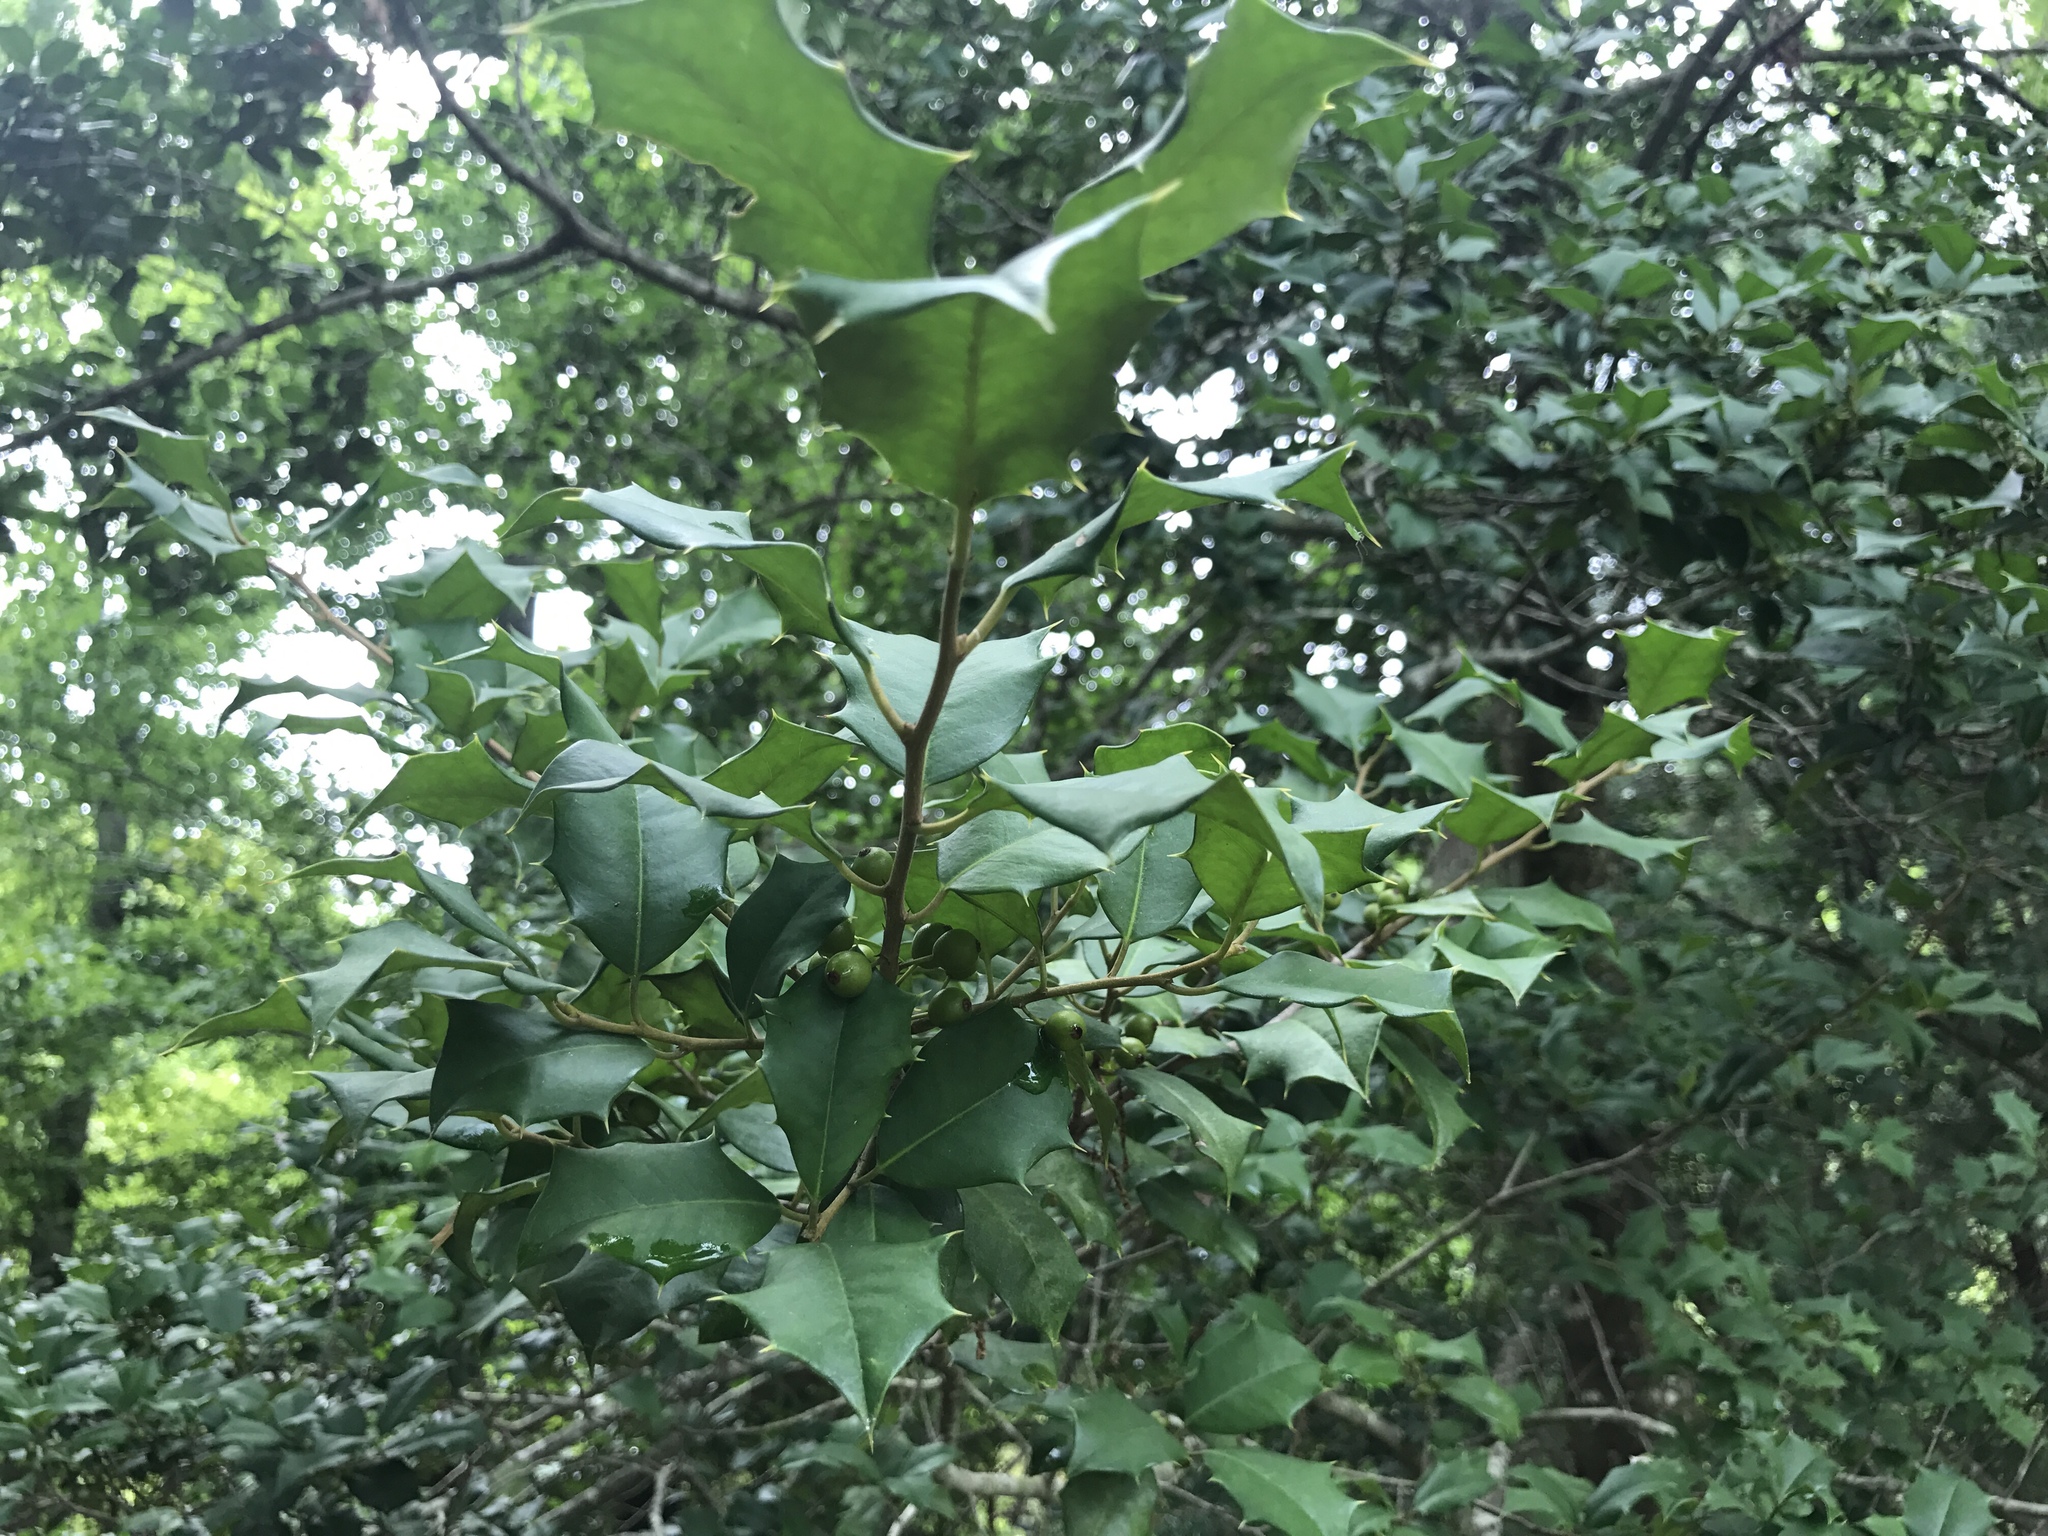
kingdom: Plantae
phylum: Tracheophyta
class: Magnoliopsida
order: Aquifoliales
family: Aquifoliaceae
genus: Ilex
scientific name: Ilex opaca
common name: American holly
